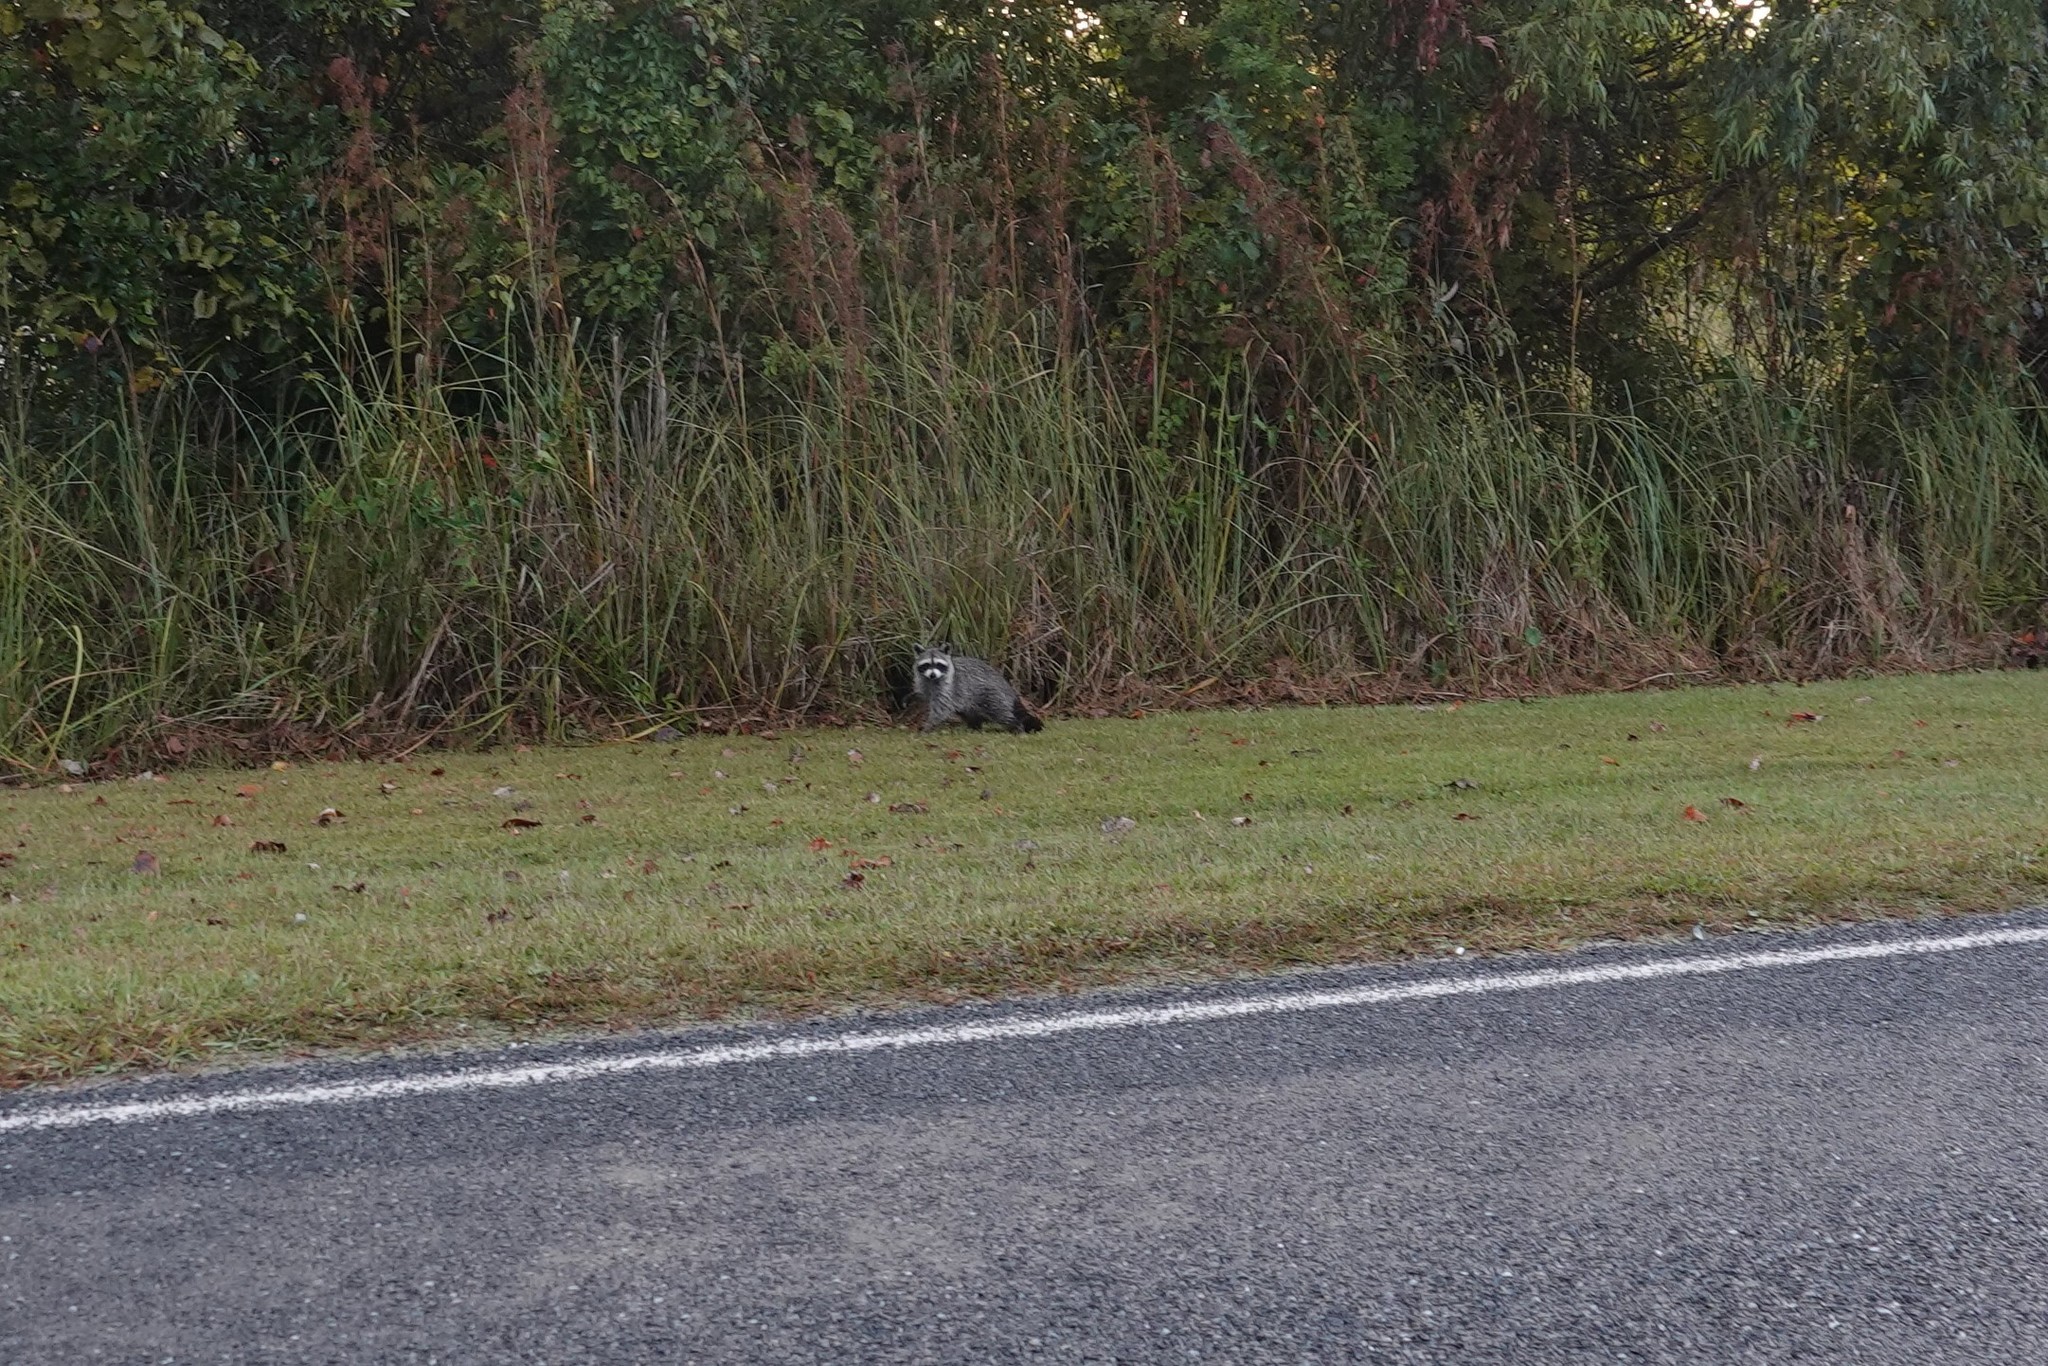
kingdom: Animalia
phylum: Chordata
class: Mammalia
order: Carnivora
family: Procyonidae
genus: Procyon
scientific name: Procyon lotor
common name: Raccoon
